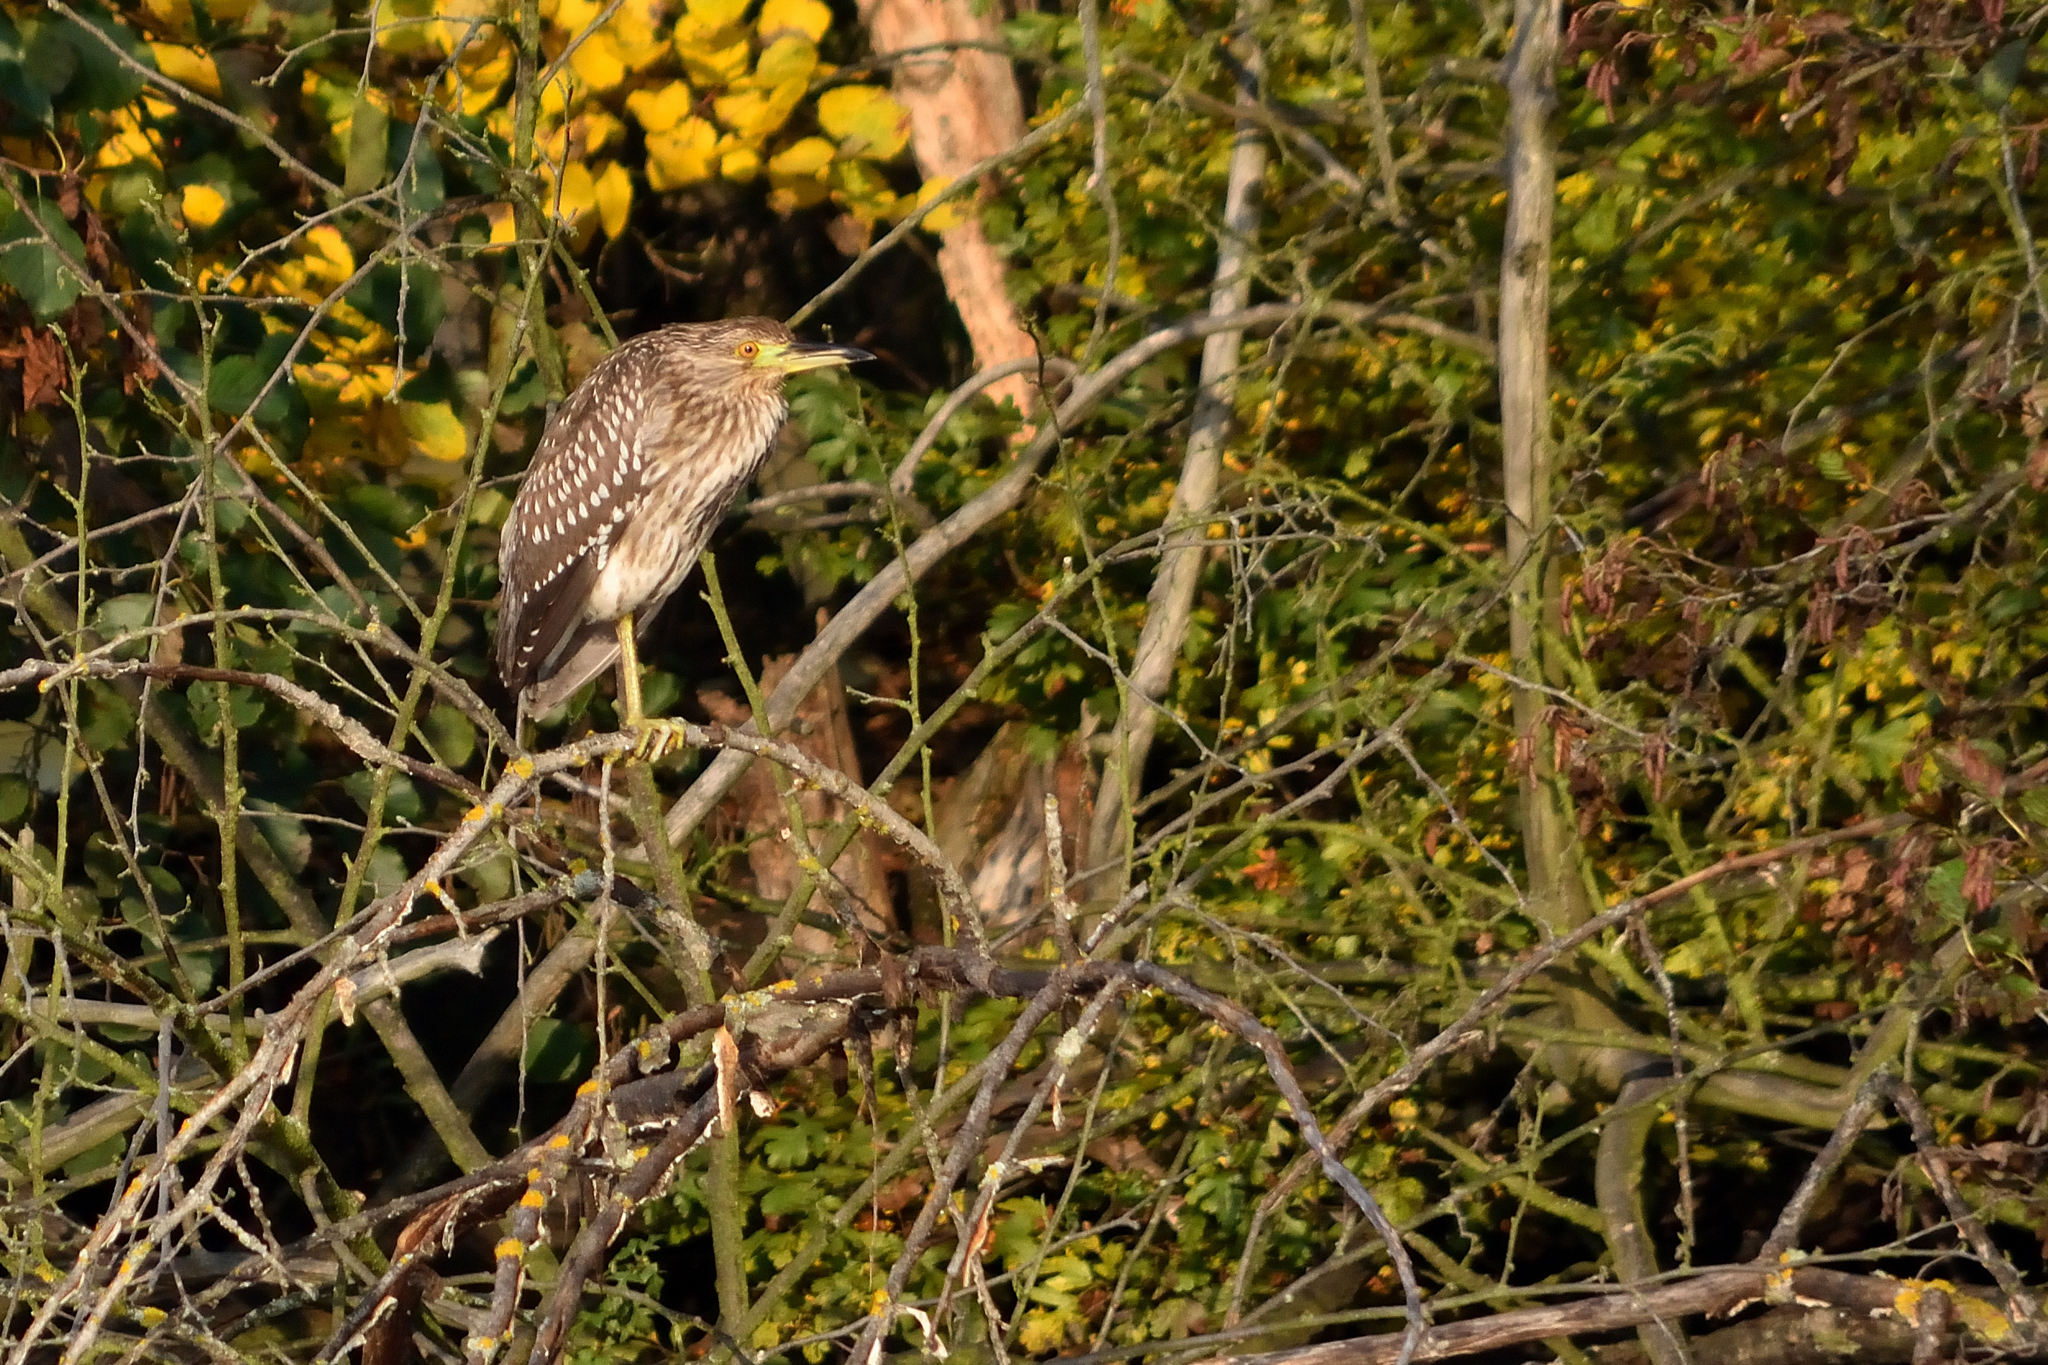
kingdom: Animalia
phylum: Chordata
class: Aves
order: Pelecaniformes
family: Ardeidae
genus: Nycticorax
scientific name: Nycticorax nycticorax
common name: Black-crowned night heron
